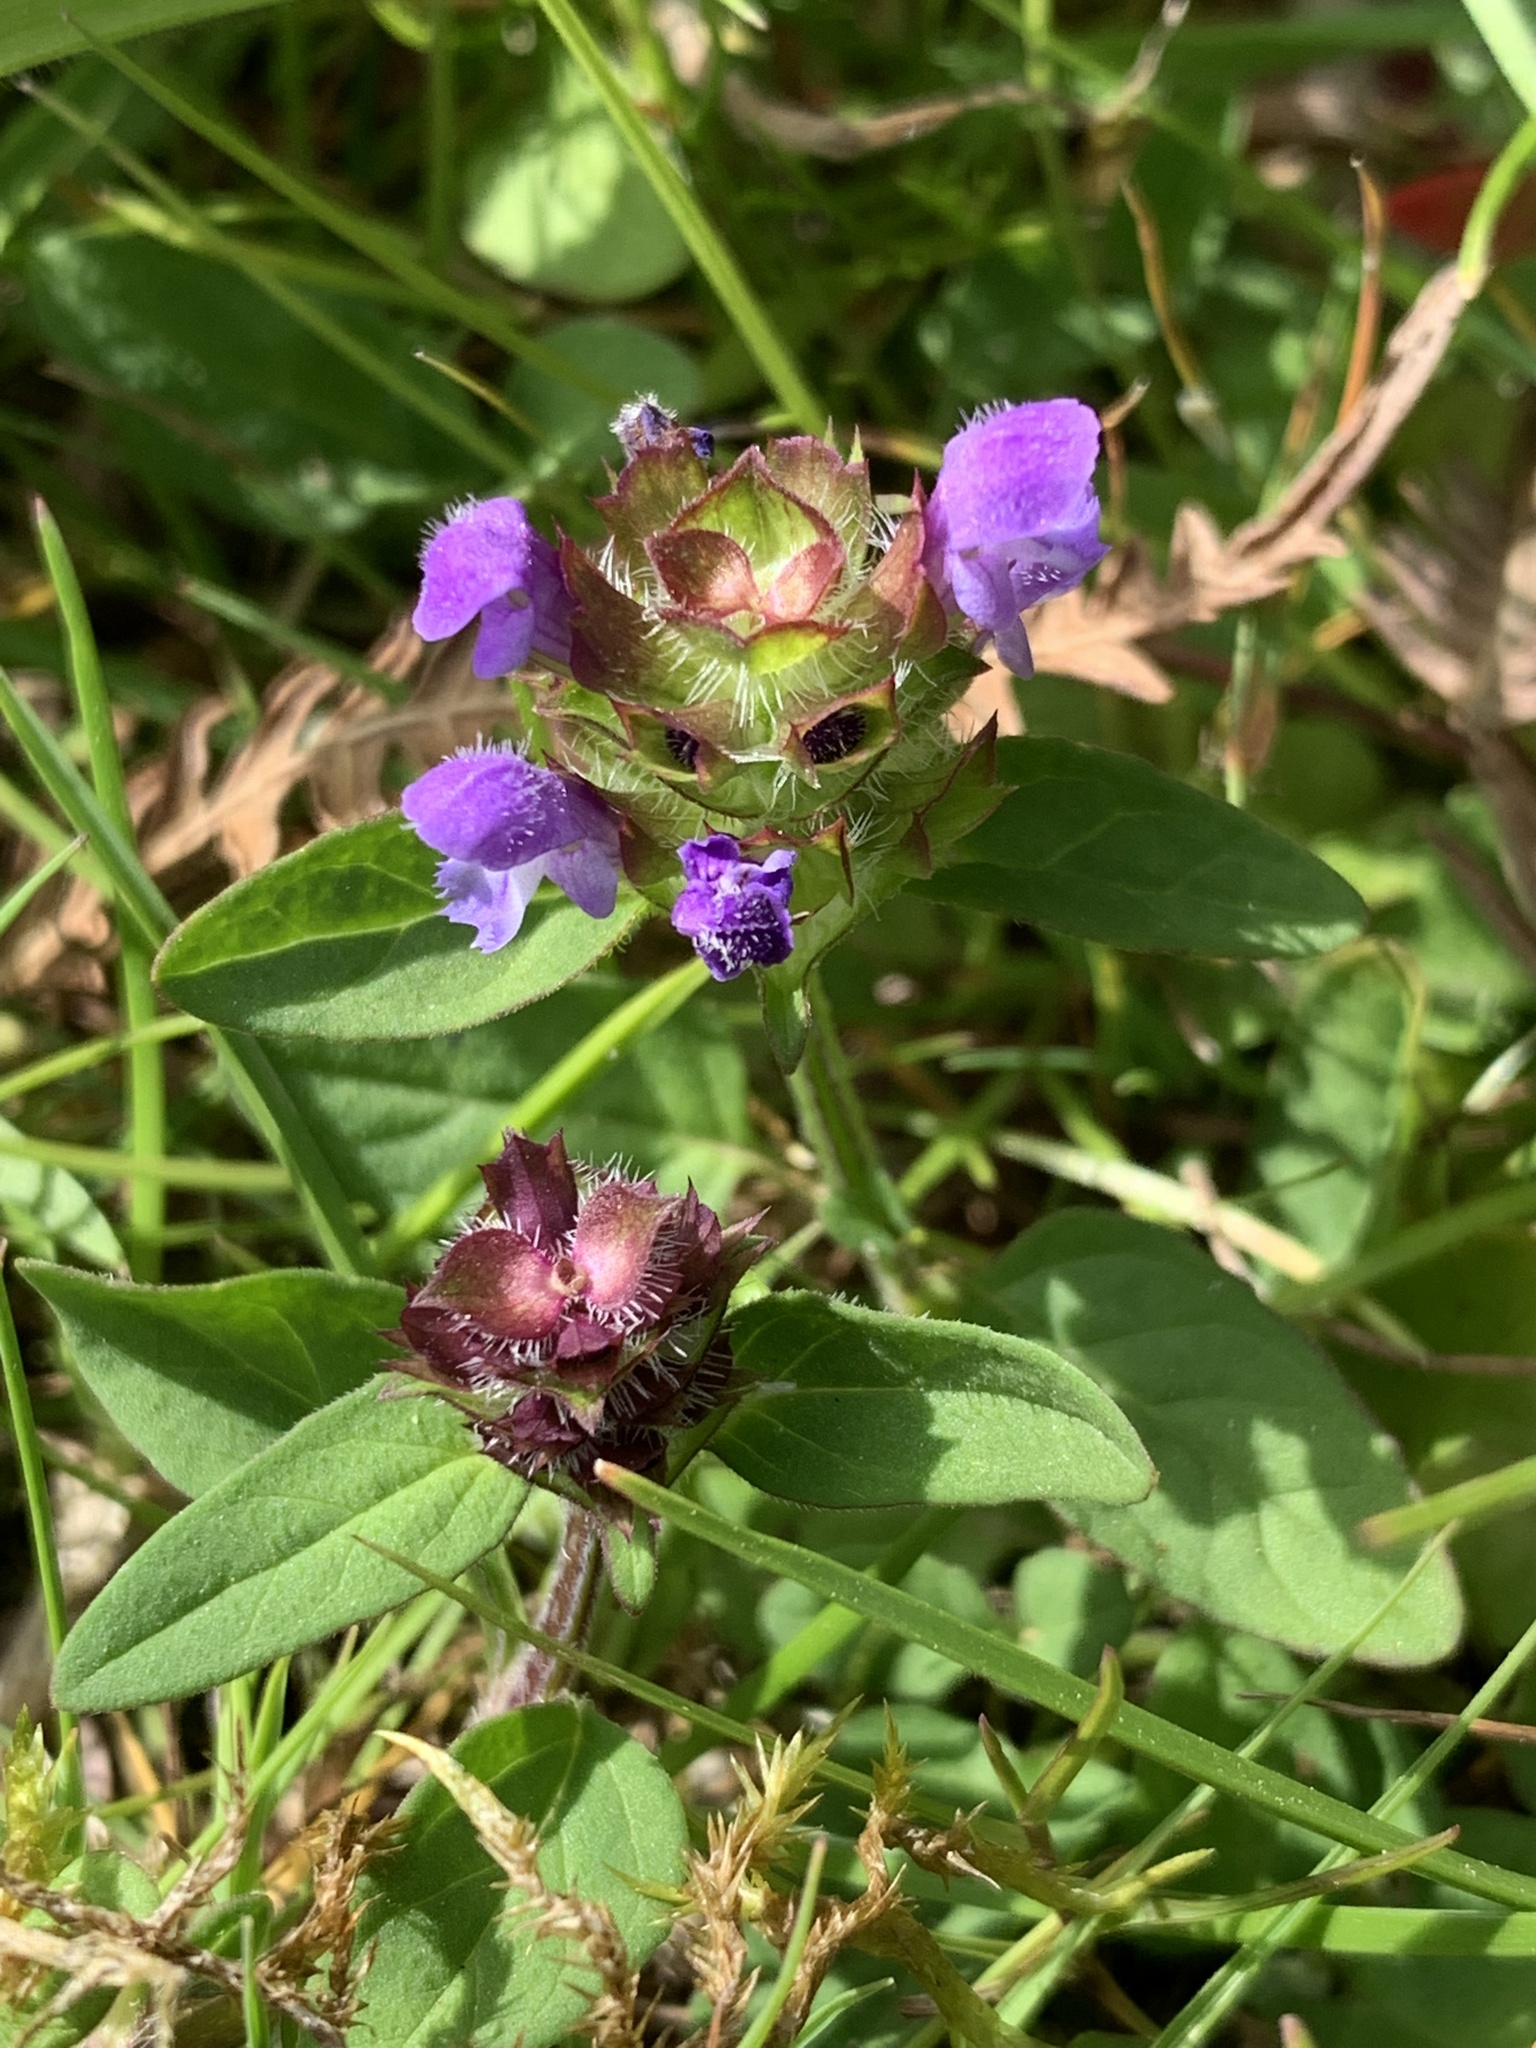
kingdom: Plantae
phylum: Tracheophyta
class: Magnoliopsida
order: Lamiales
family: Lamiaceae
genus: Prunella
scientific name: Prunella vulgaris
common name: Heal-all
